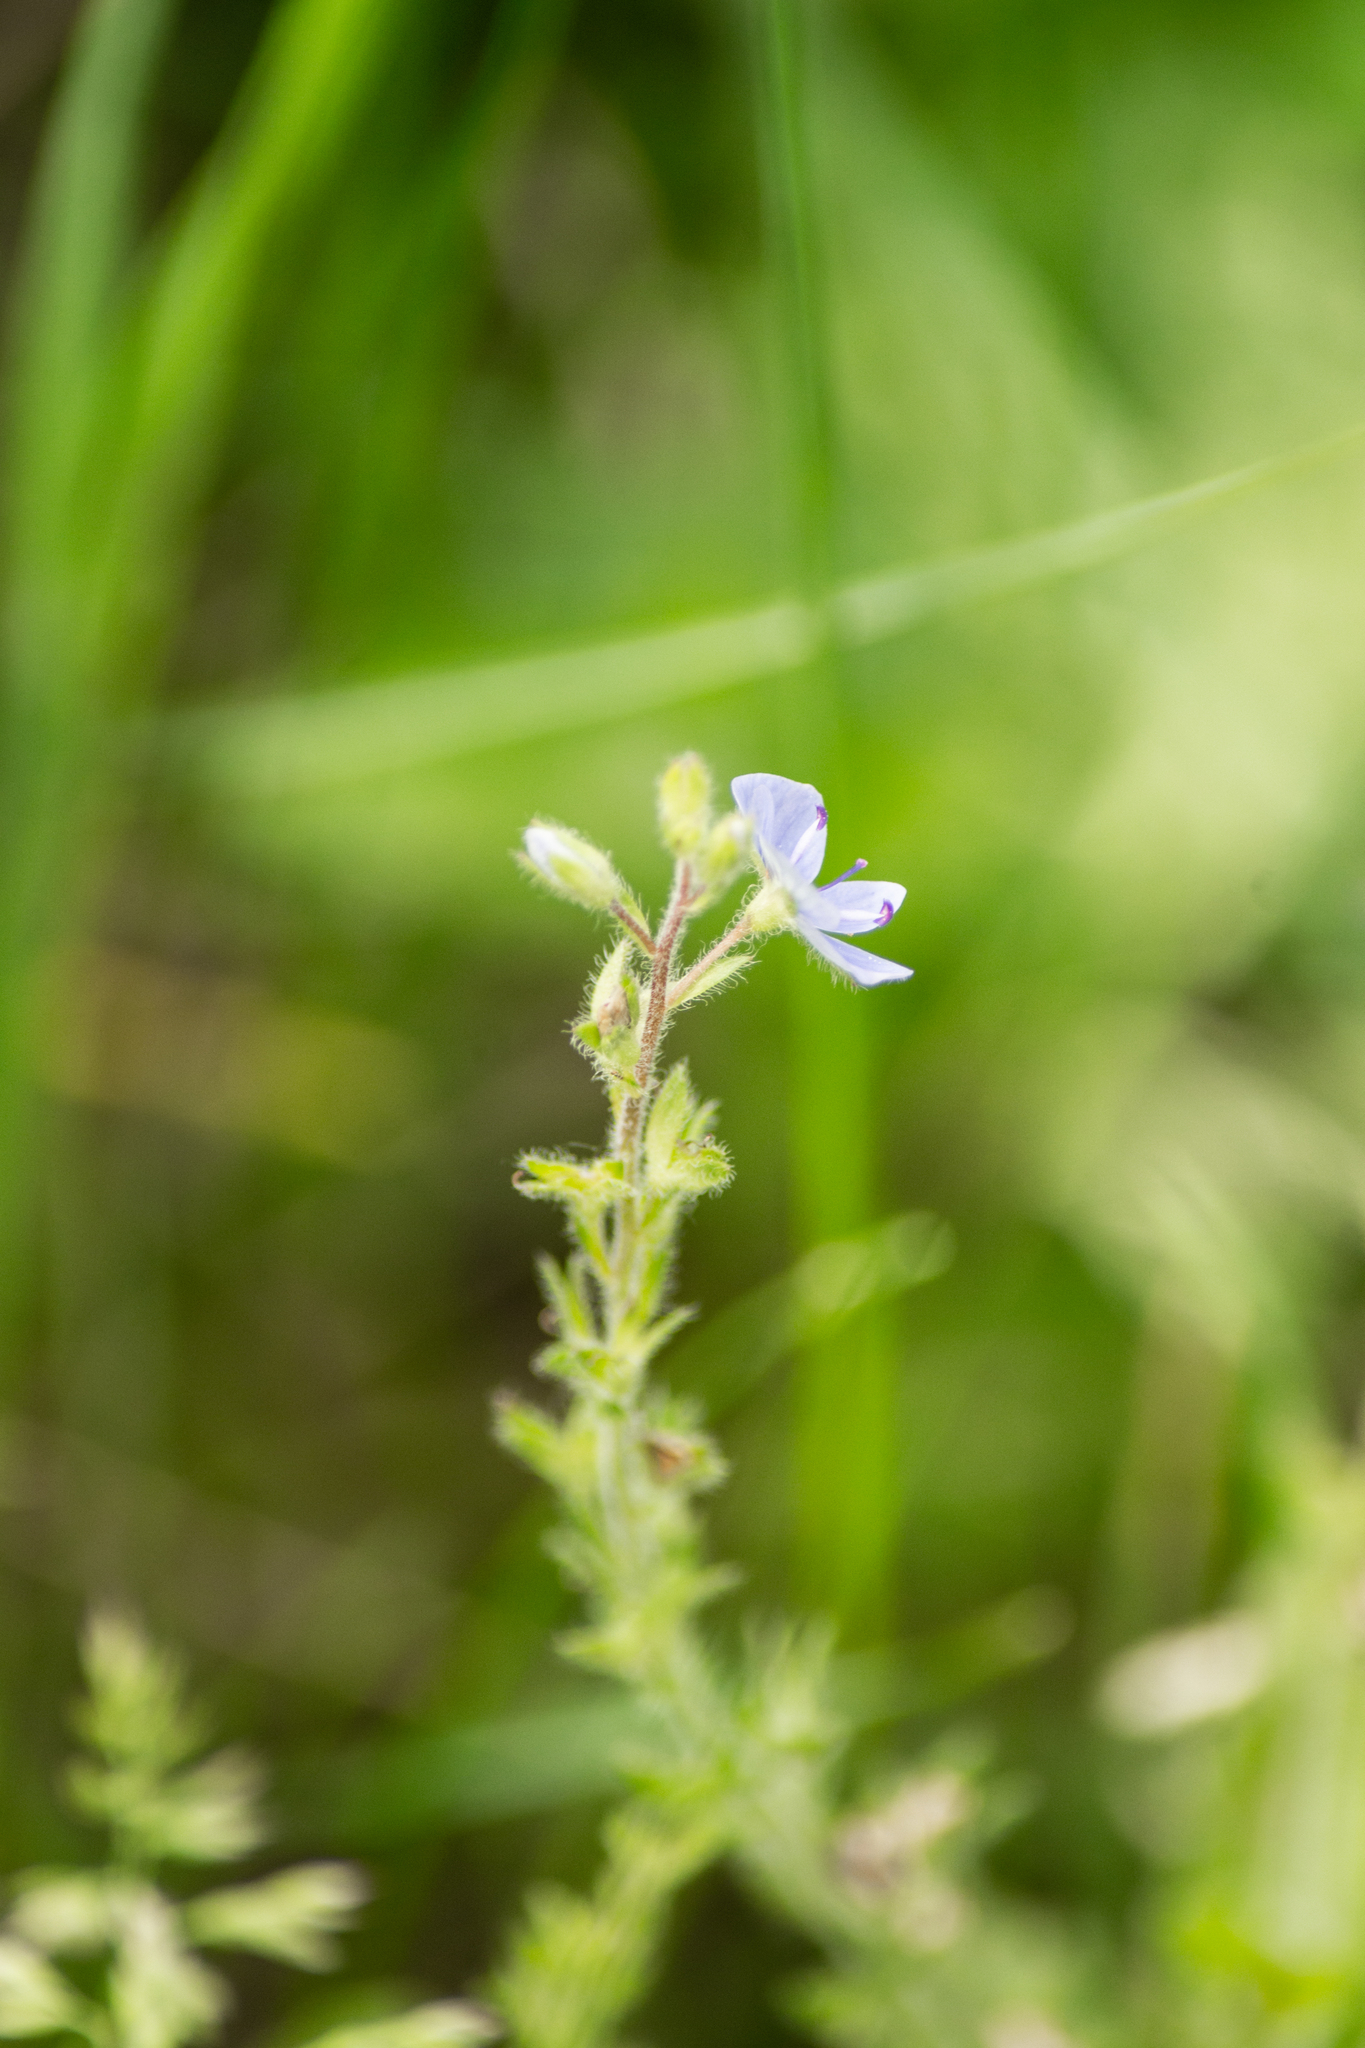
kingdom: Plantae
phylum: Tracheophyta
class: Magnoliopsida
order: Lamiales
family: Plantaginaceae
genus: Veronica
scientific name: Veronica chamaedrys
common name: Germander speedwell
